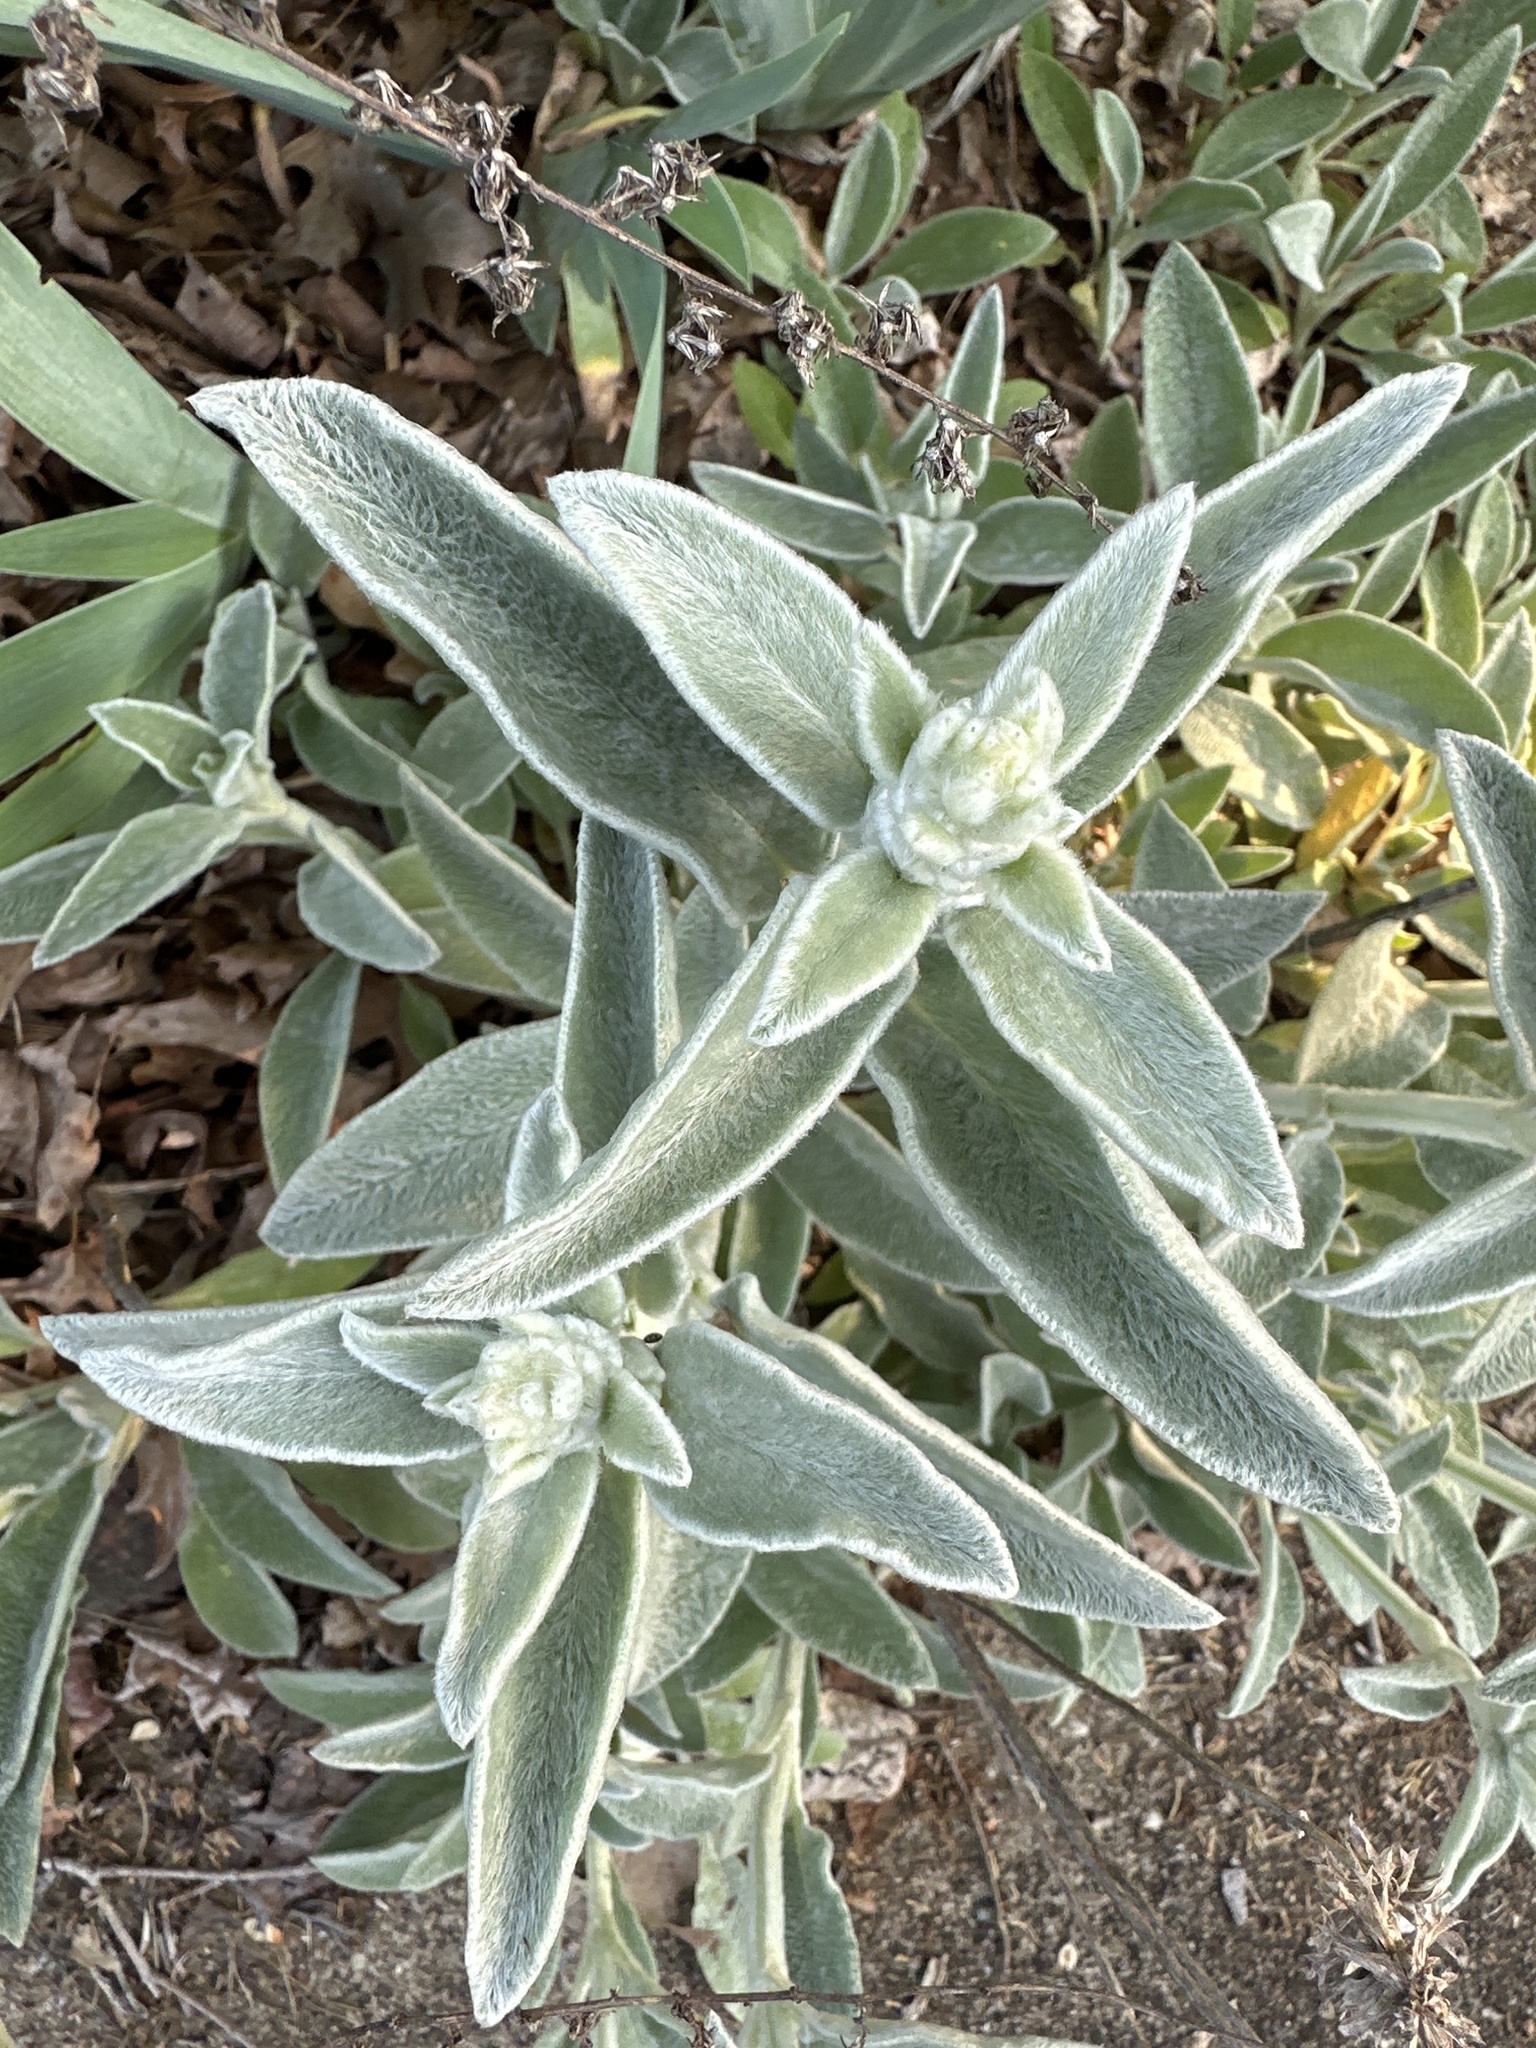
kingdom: Plantae
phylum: Tracheophyta
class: Magnoliopsida
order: Lamiales
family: Lamiaceae
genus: Stachys
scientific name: Stachys byzantina
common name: Lamb's-ear
